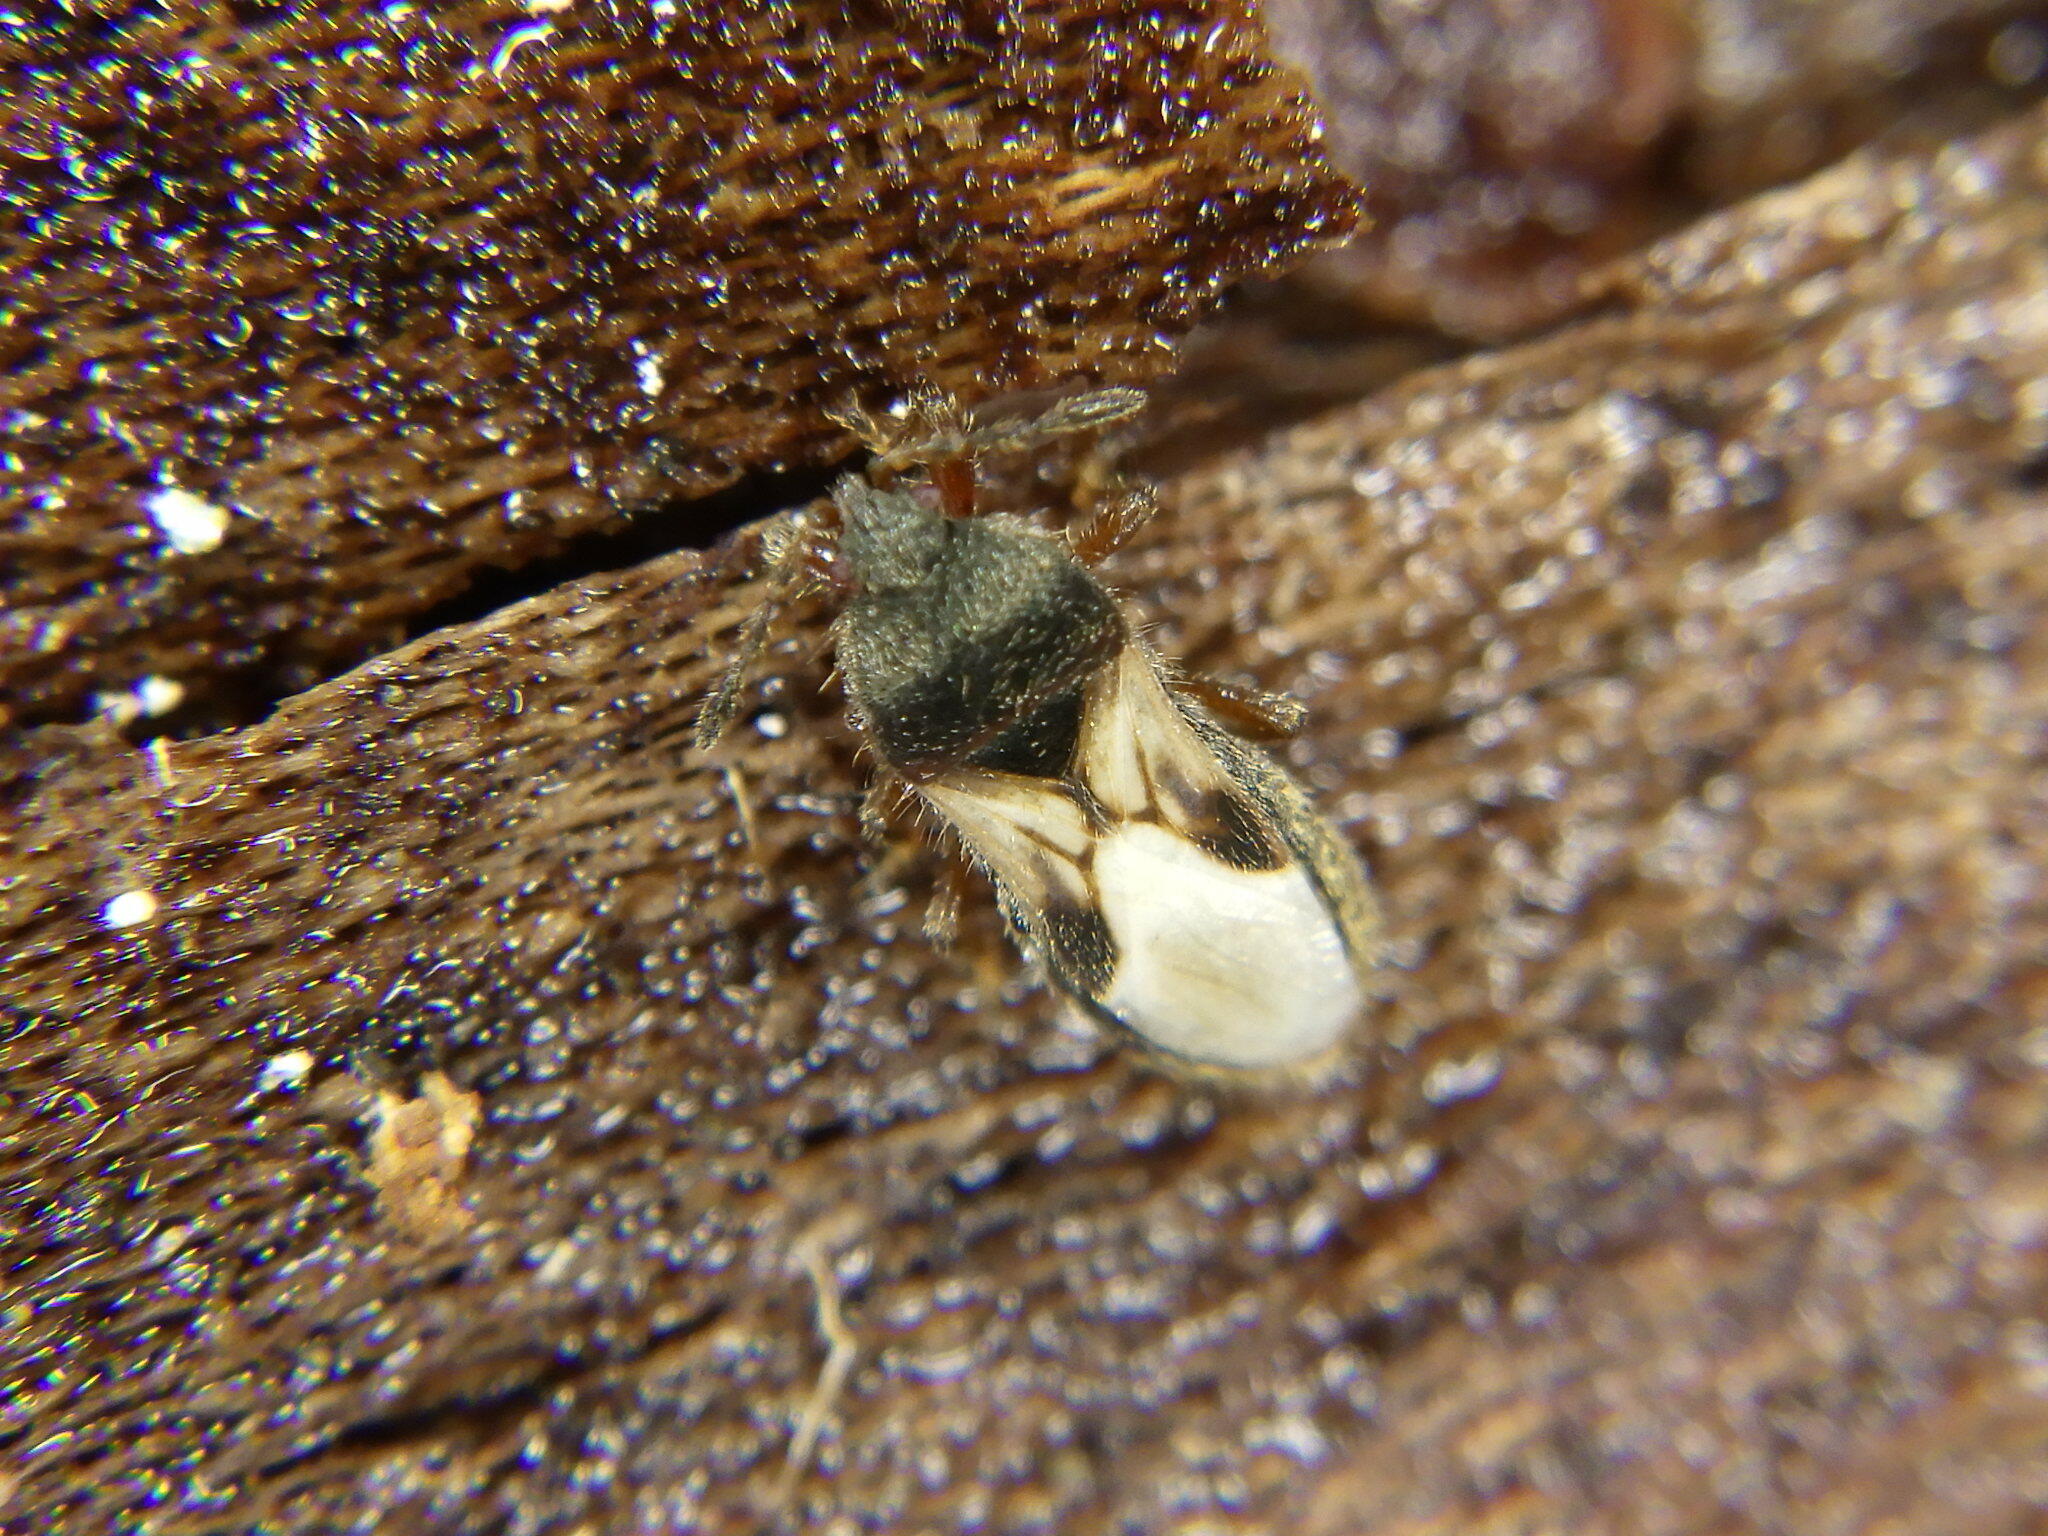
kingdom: Animalia
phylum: Arthropoda
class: Insecta
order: Hemiptera
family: Blissidae
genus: Blissus
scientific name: Blissus leucopterus
